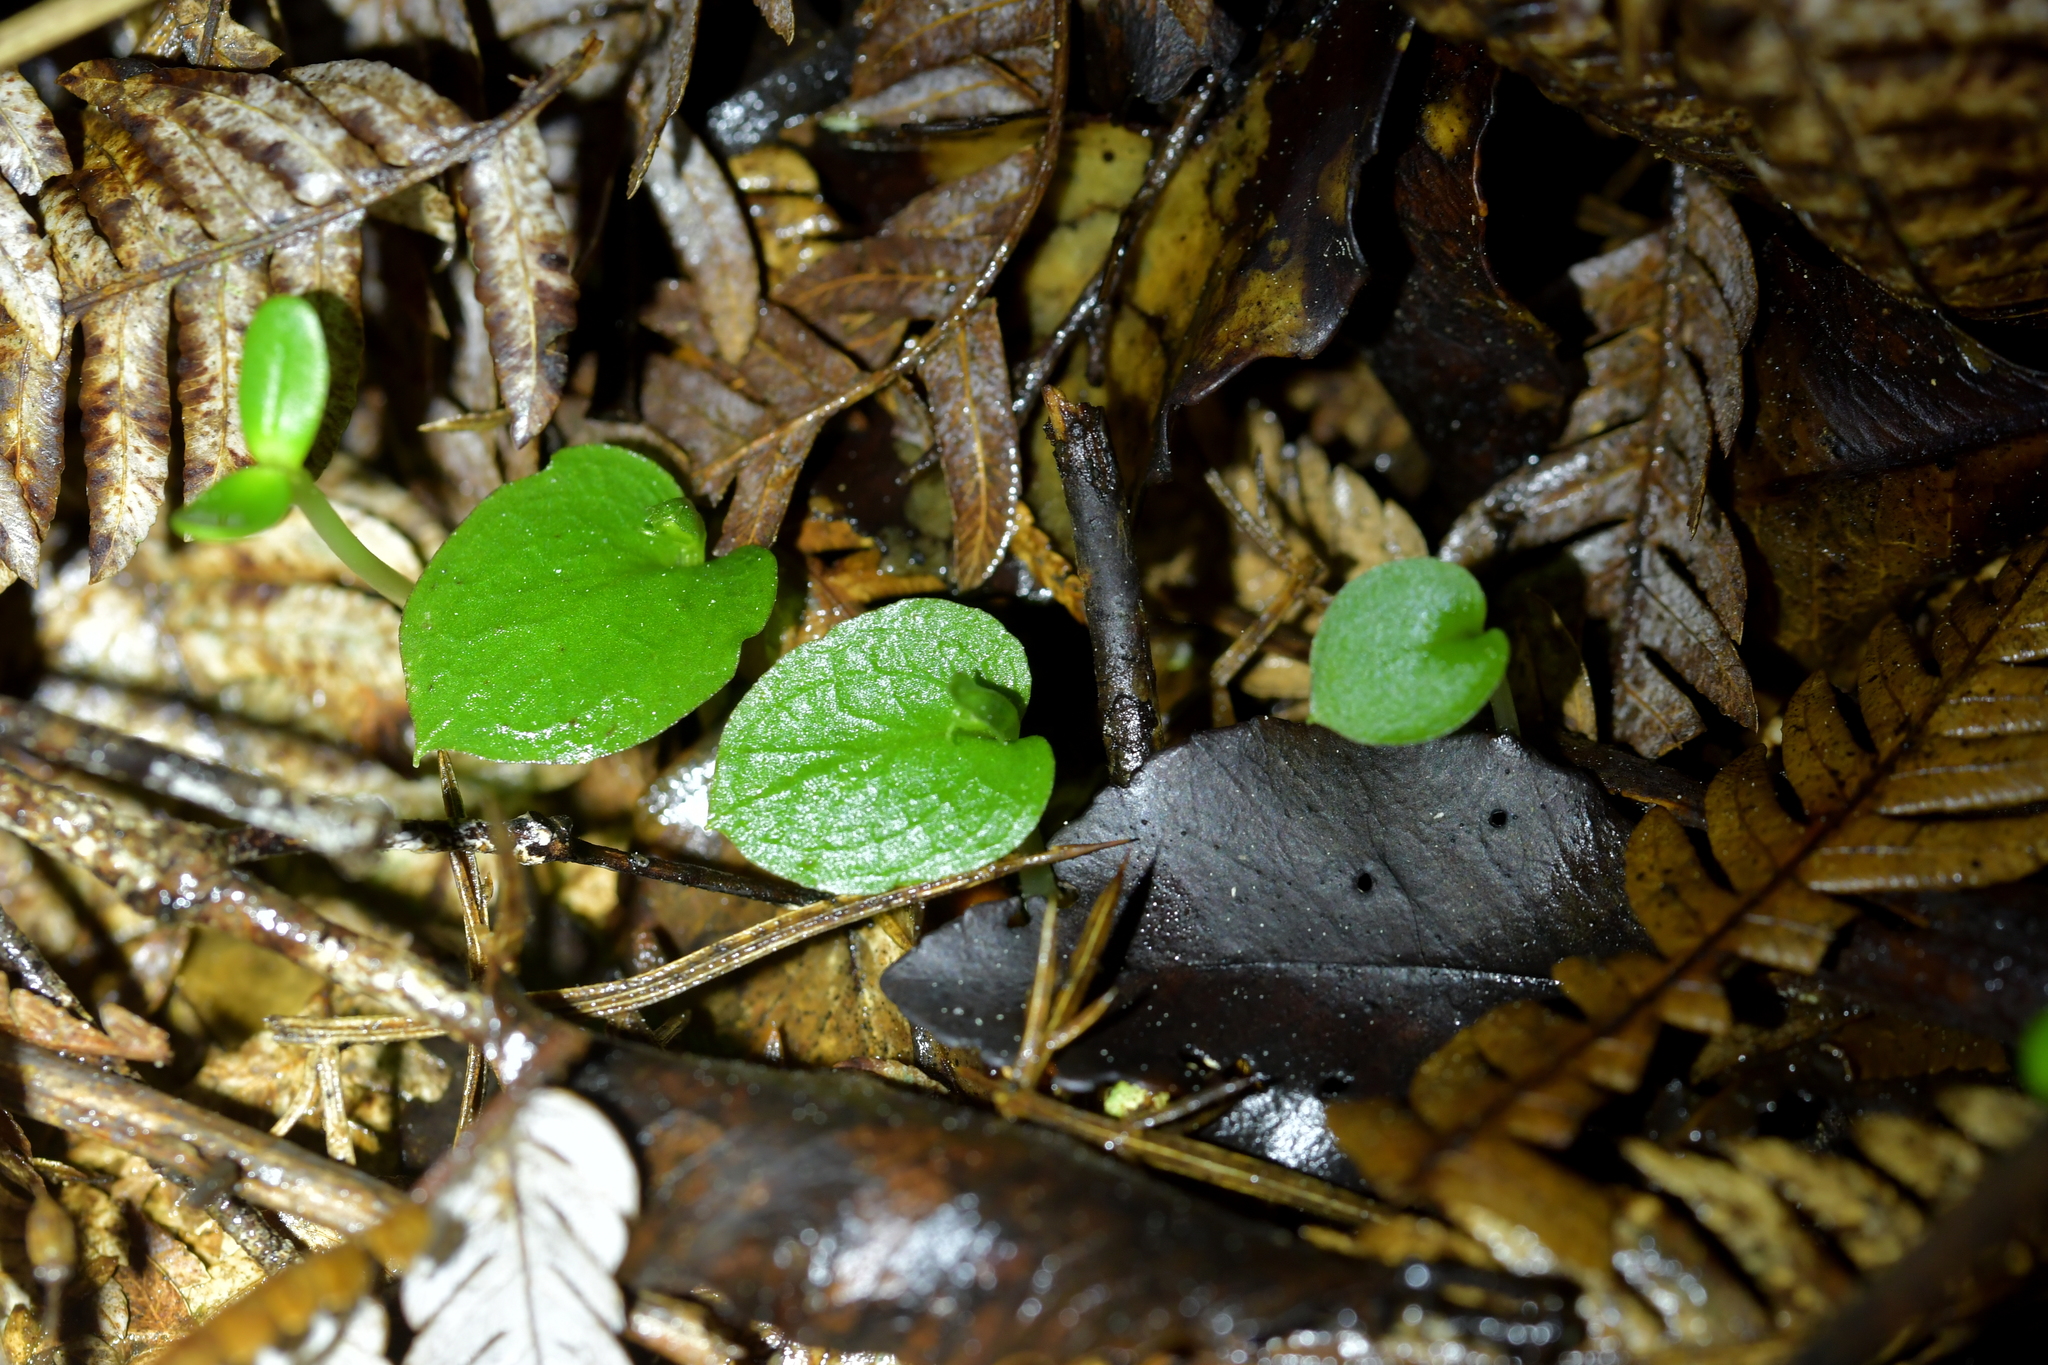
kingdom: Plantae
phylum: Tracheophyta
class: Liliopsida
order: Asparagales
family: Orchidaceae
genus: Corybas
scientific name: Corybas oblongus
